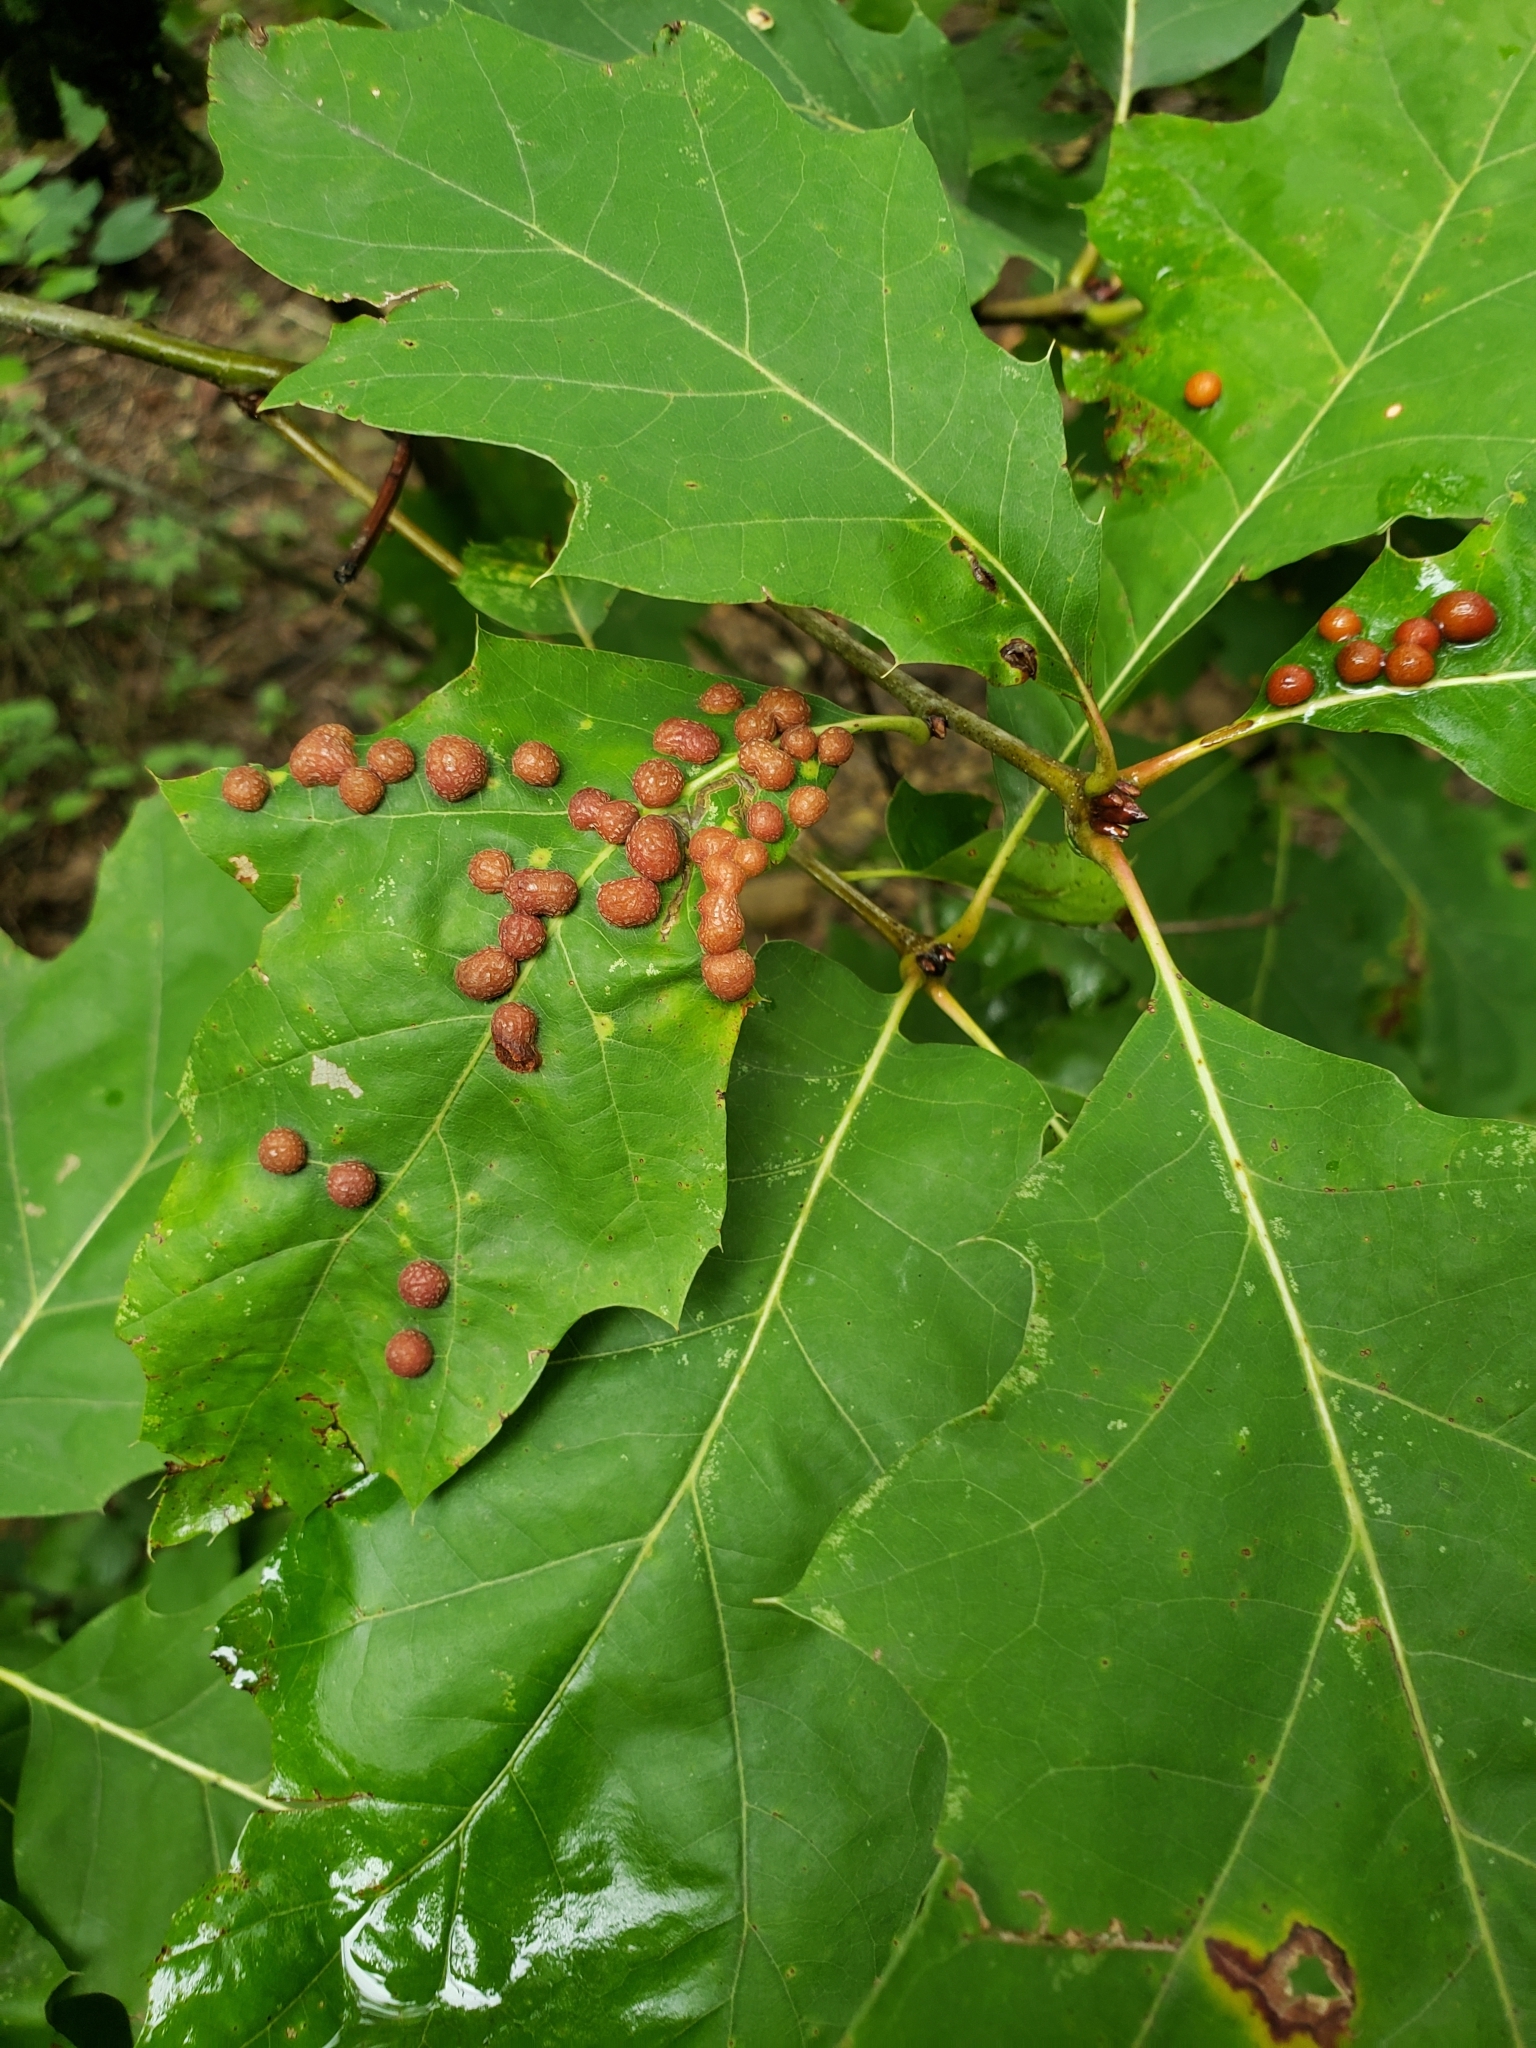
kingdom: Animalia
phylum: Arthropoda
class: Insecta
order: Diptera
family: Cecidomyiidae
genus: Polystepha
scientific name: Polystepha pilulae
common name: Oak leaf gall midge
